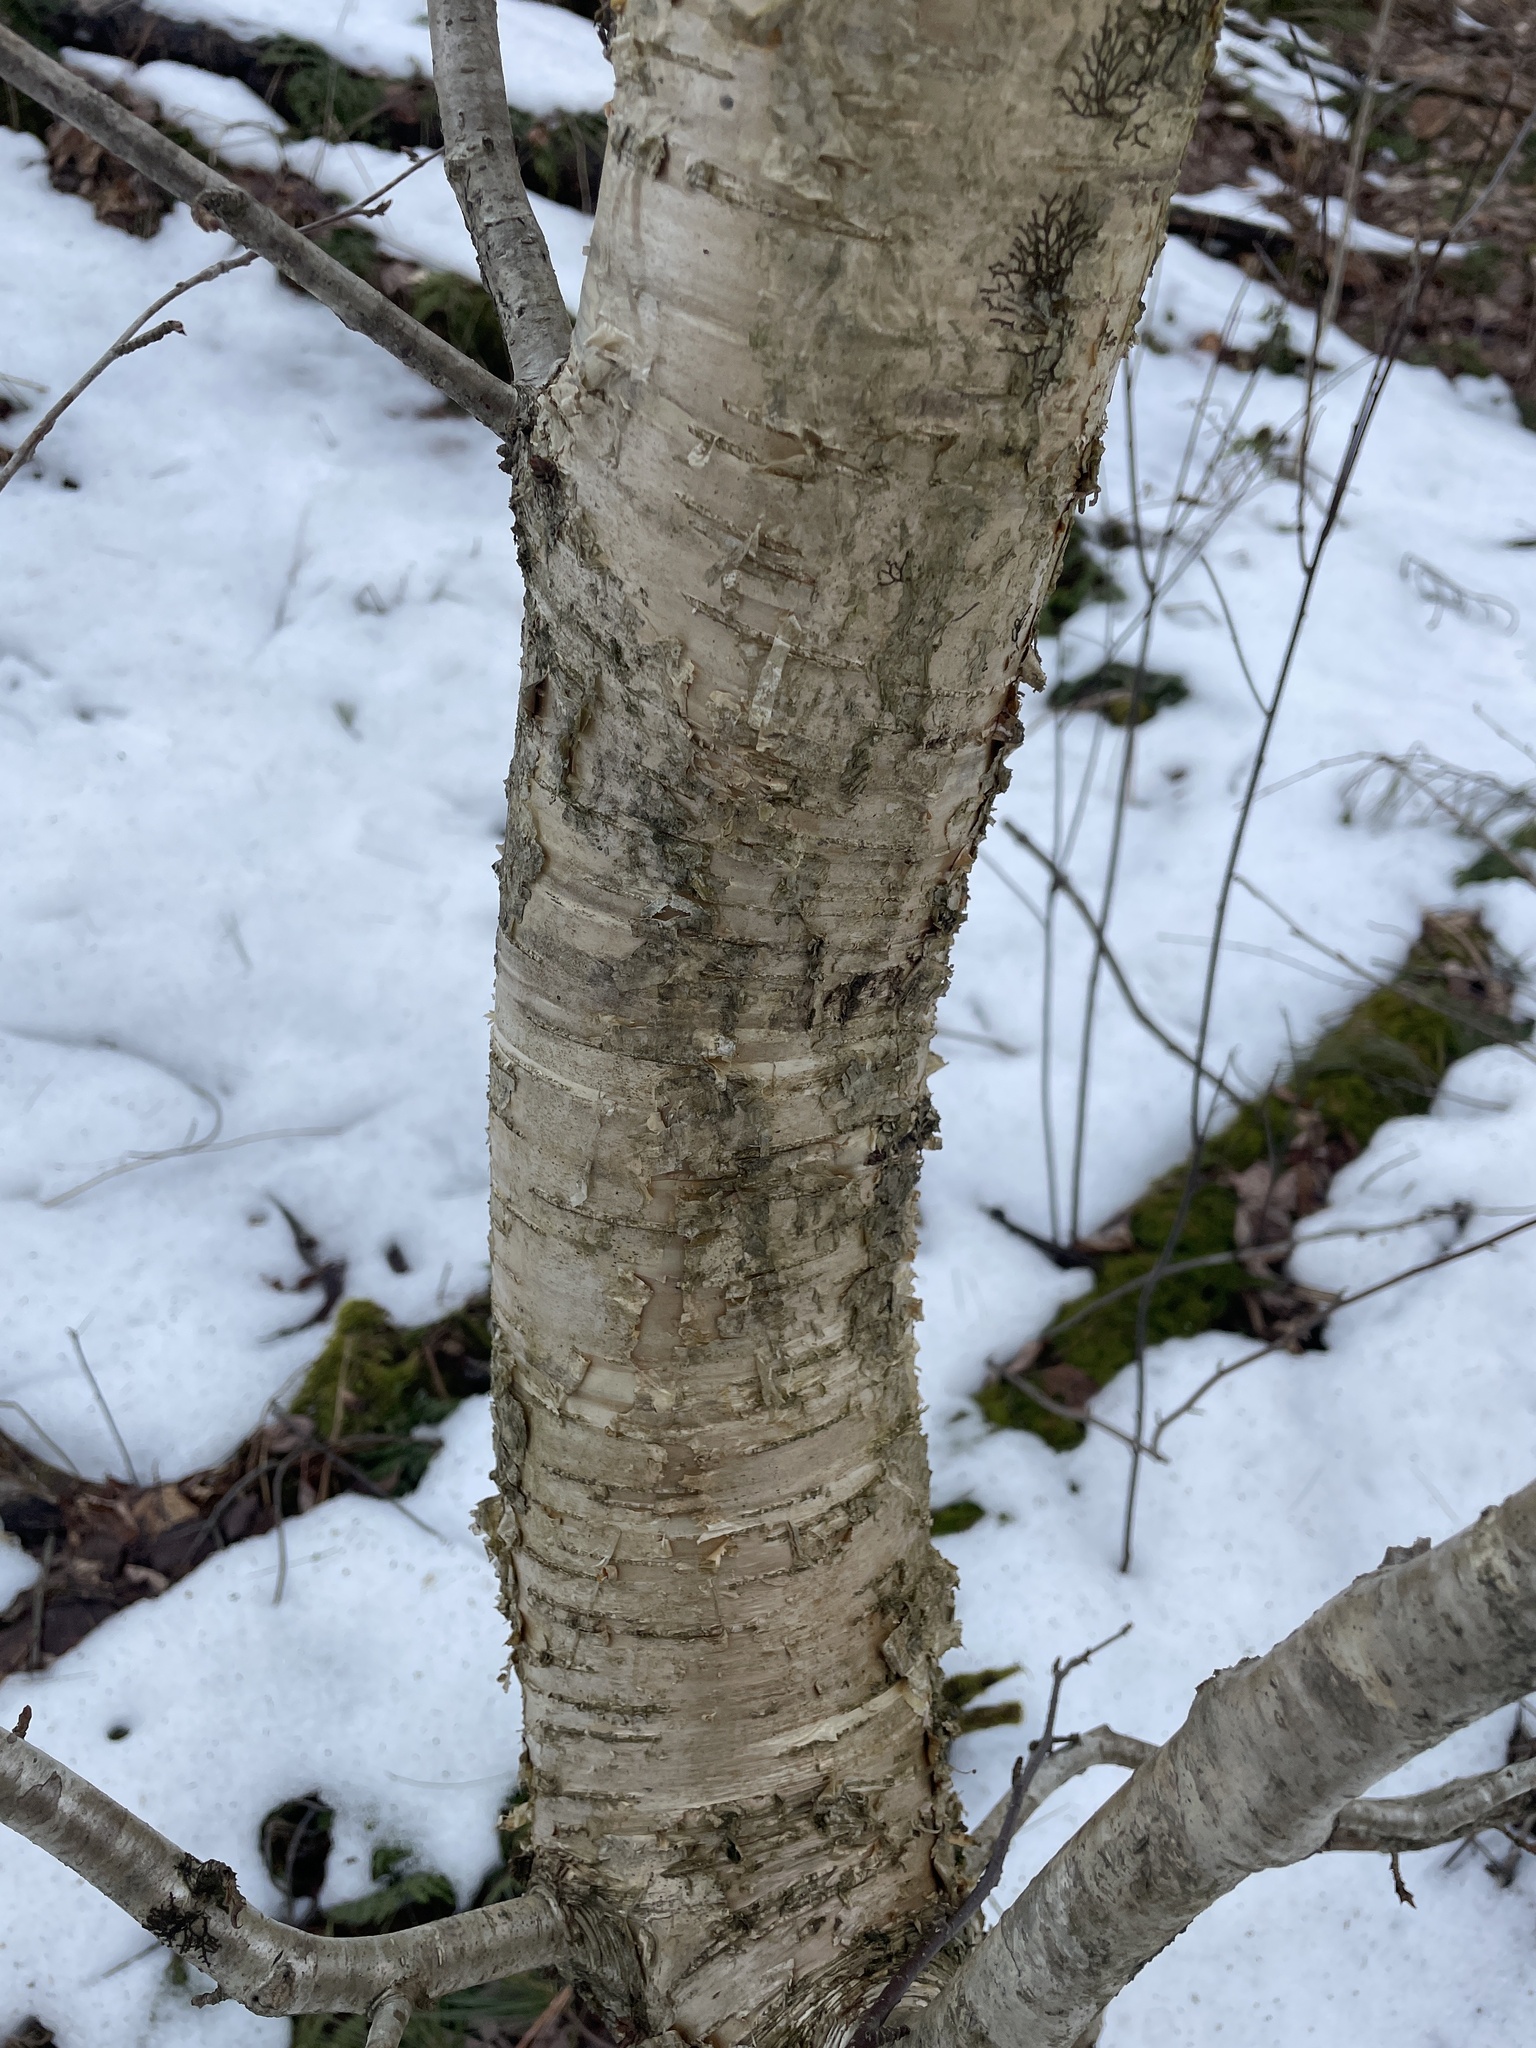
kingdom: Plantae
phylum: Tracheophyta
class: Magnoliopsida
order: Fagales
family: Betulaceae
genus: Betula
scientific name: Betula alleghaniensis
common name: Yellow birch
